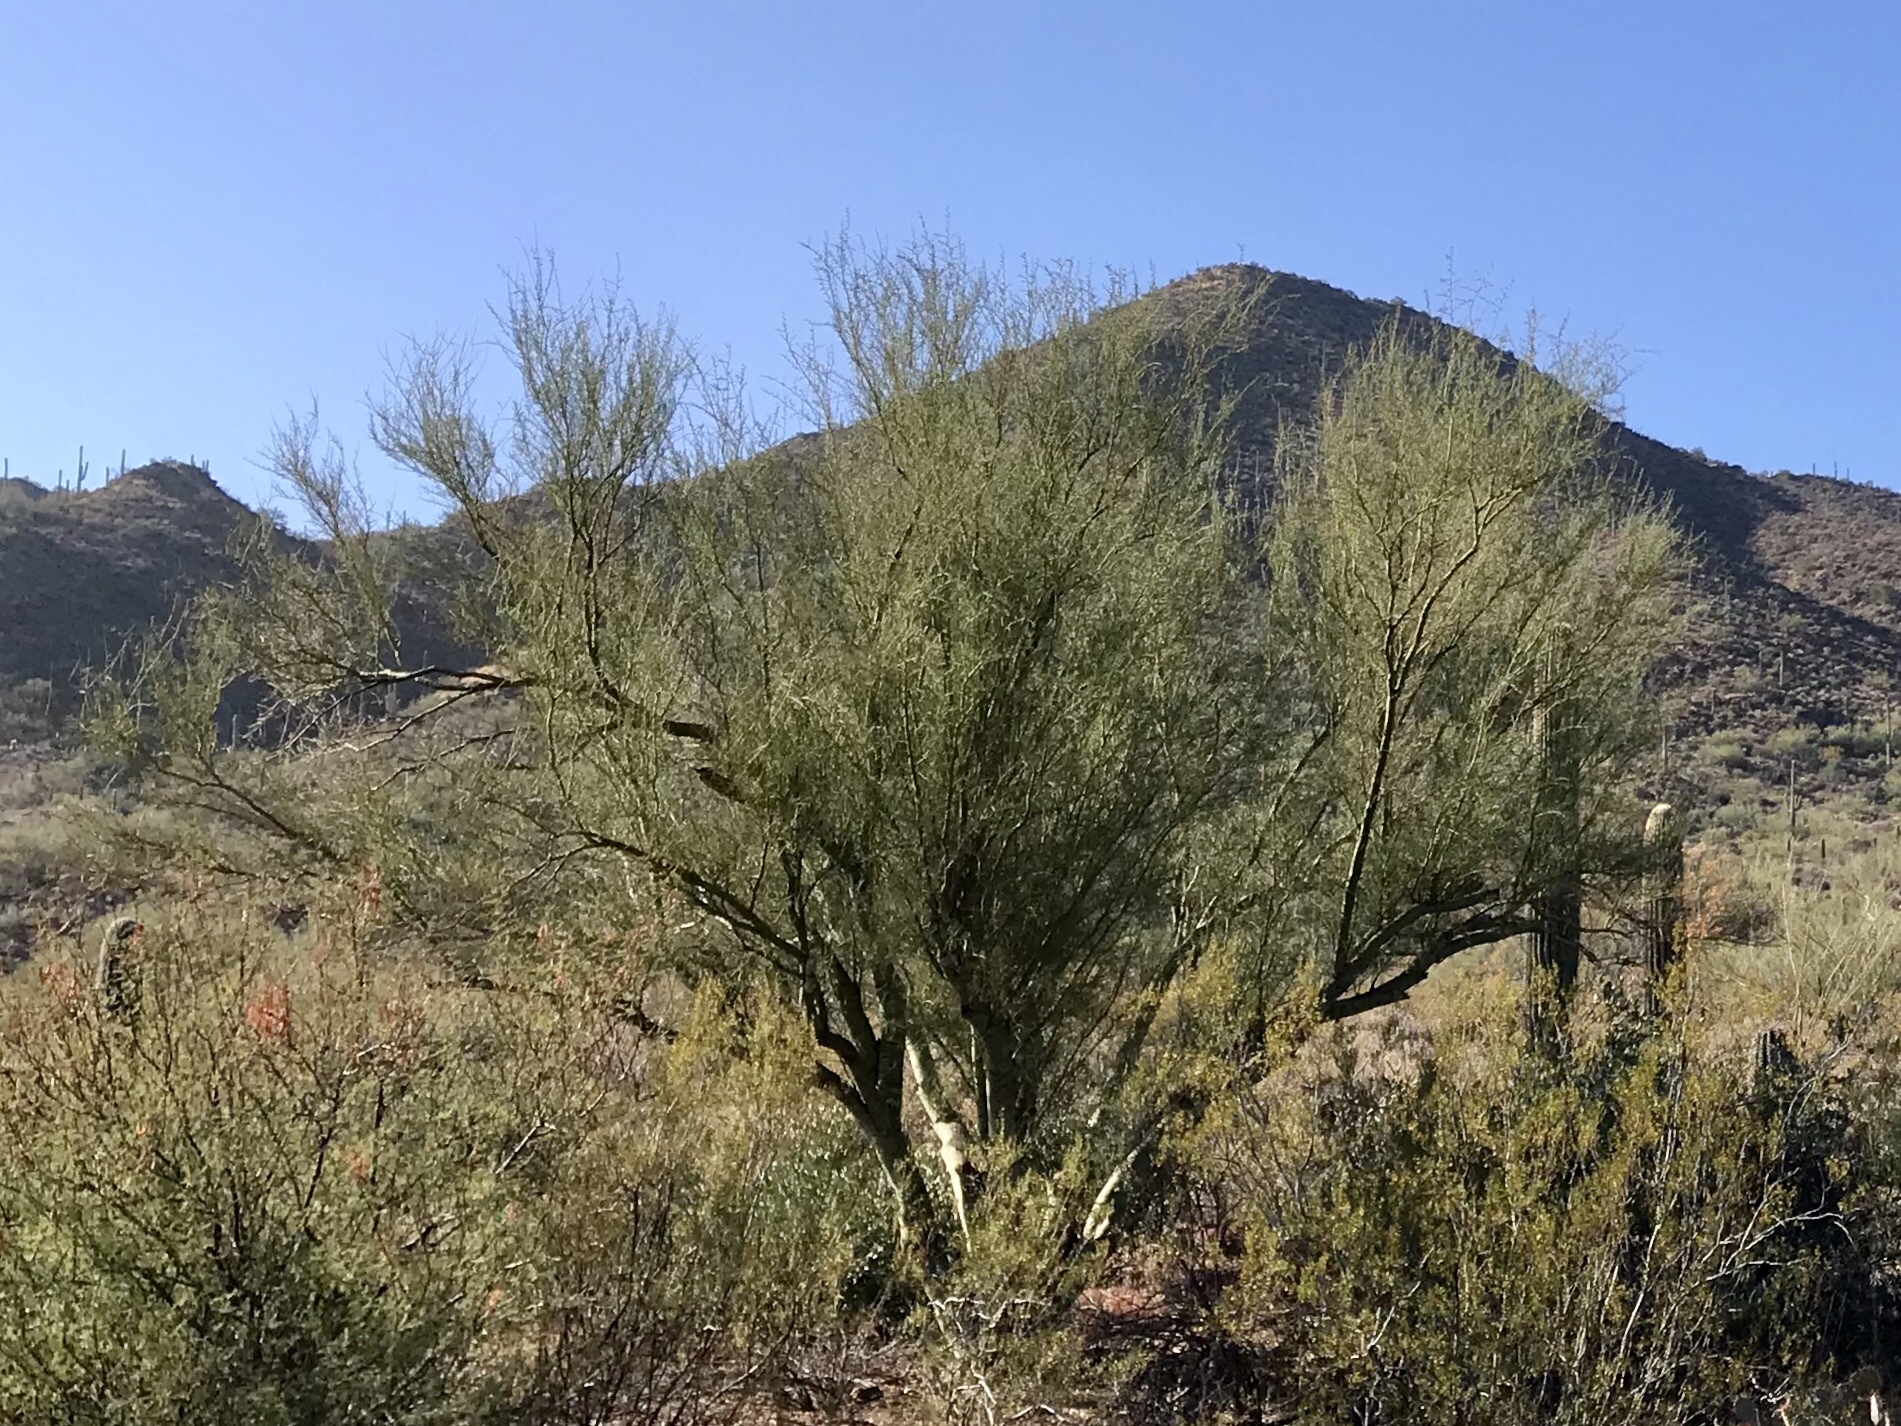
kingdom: Plantae
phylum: Tracheophyta
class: Magnoliopsida
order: Fabales
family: Fabaceae
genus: Parkinsonia
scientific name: Parkinsonia microphylla
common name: Yellow paloverde
